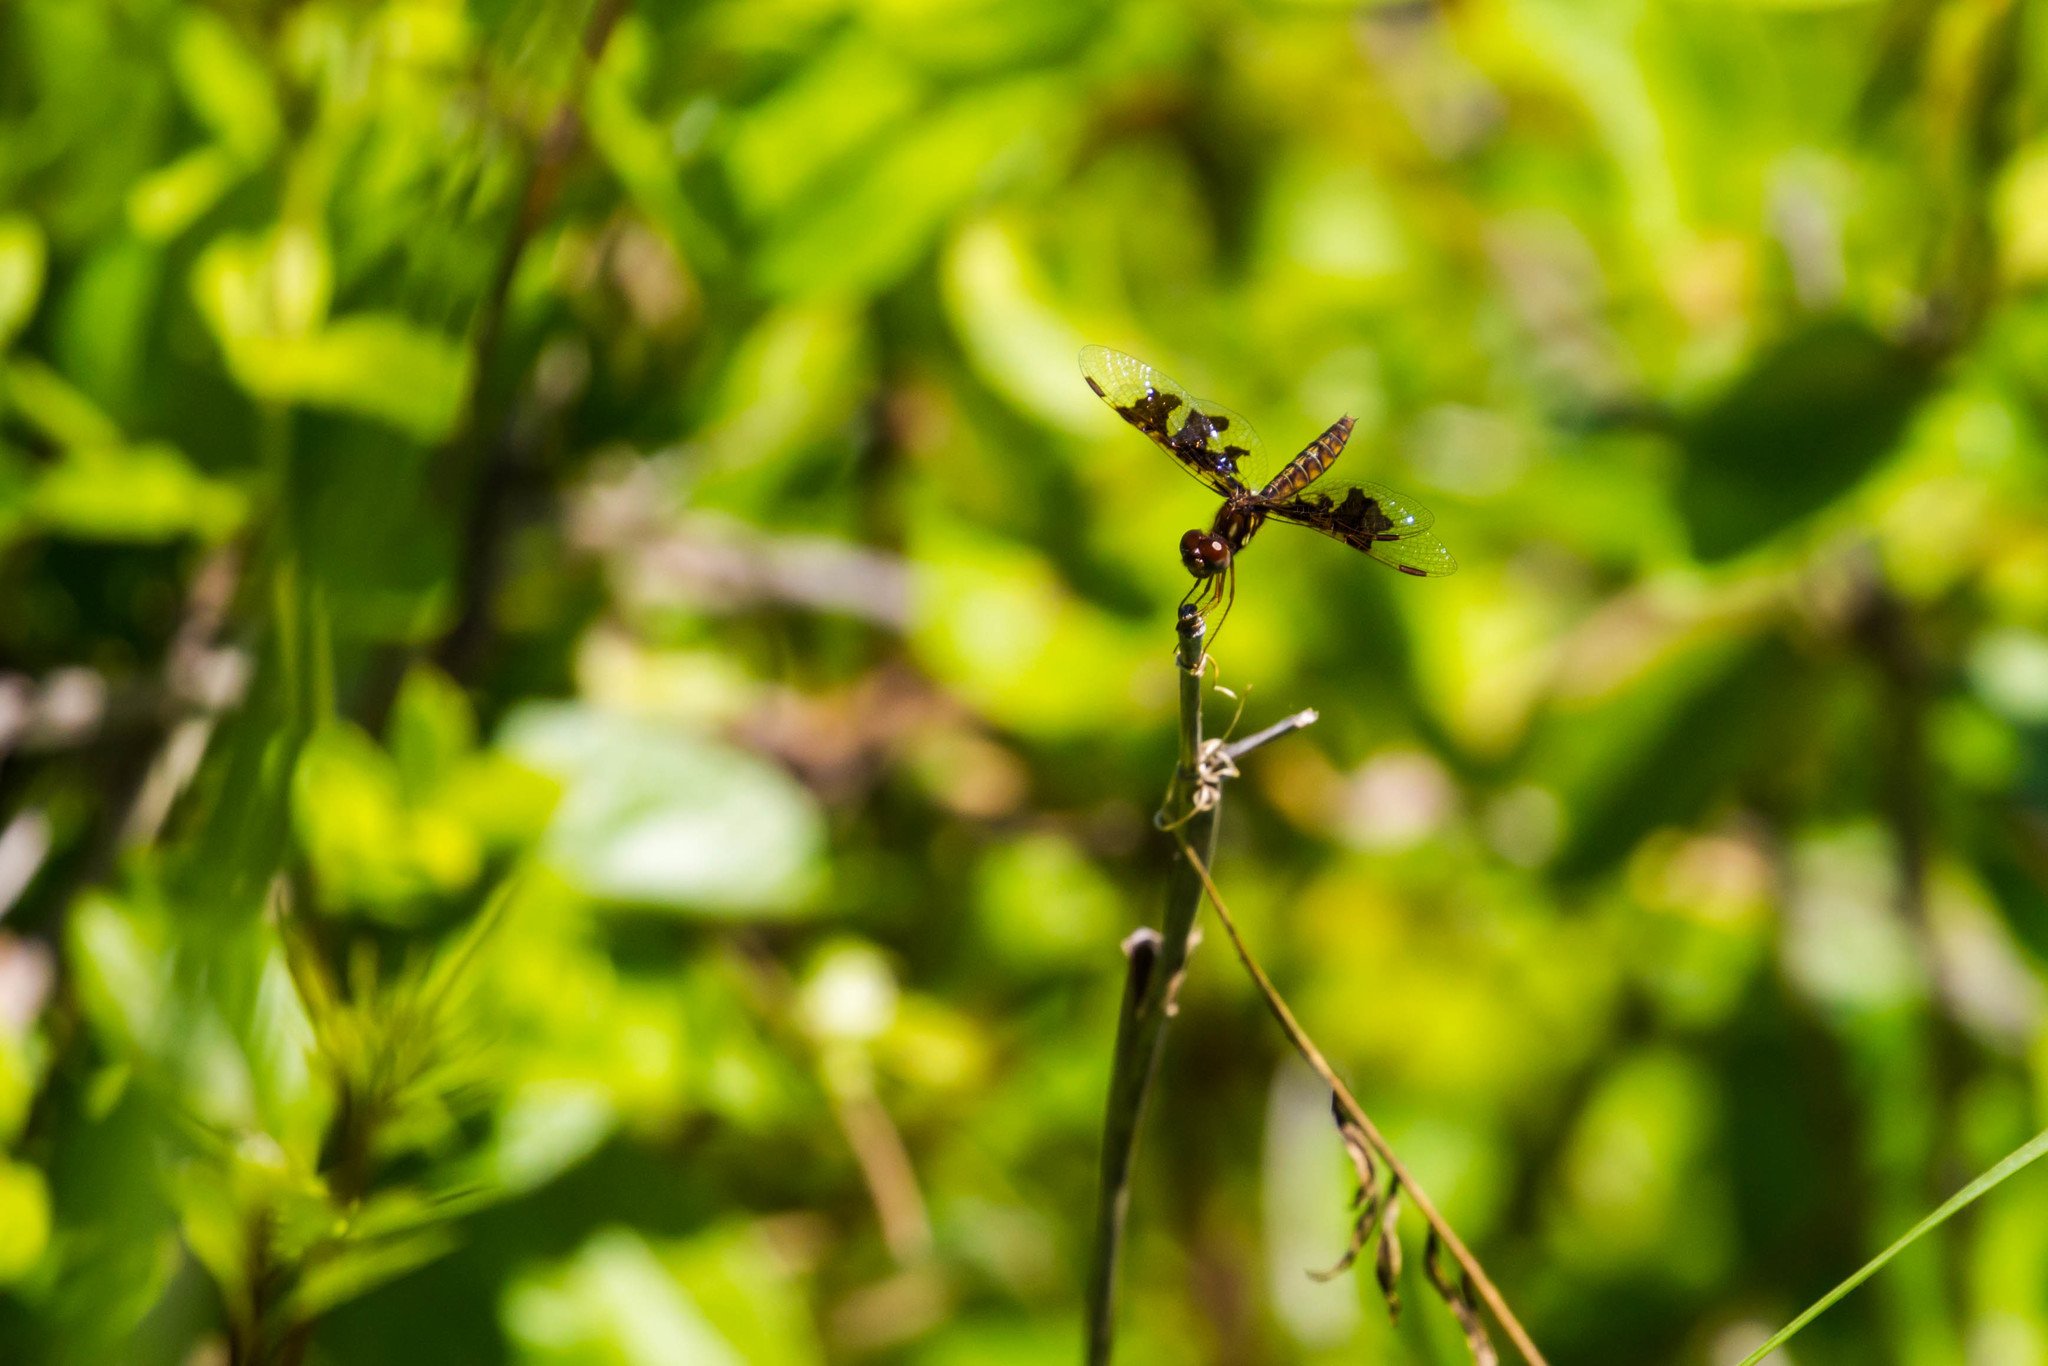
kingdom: Animalia
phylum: Arthropoda
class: Insecta
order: Odonata
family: Libellulidae
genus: Perithemis
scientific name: Perithemis tenera
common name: Eastern amberwing
